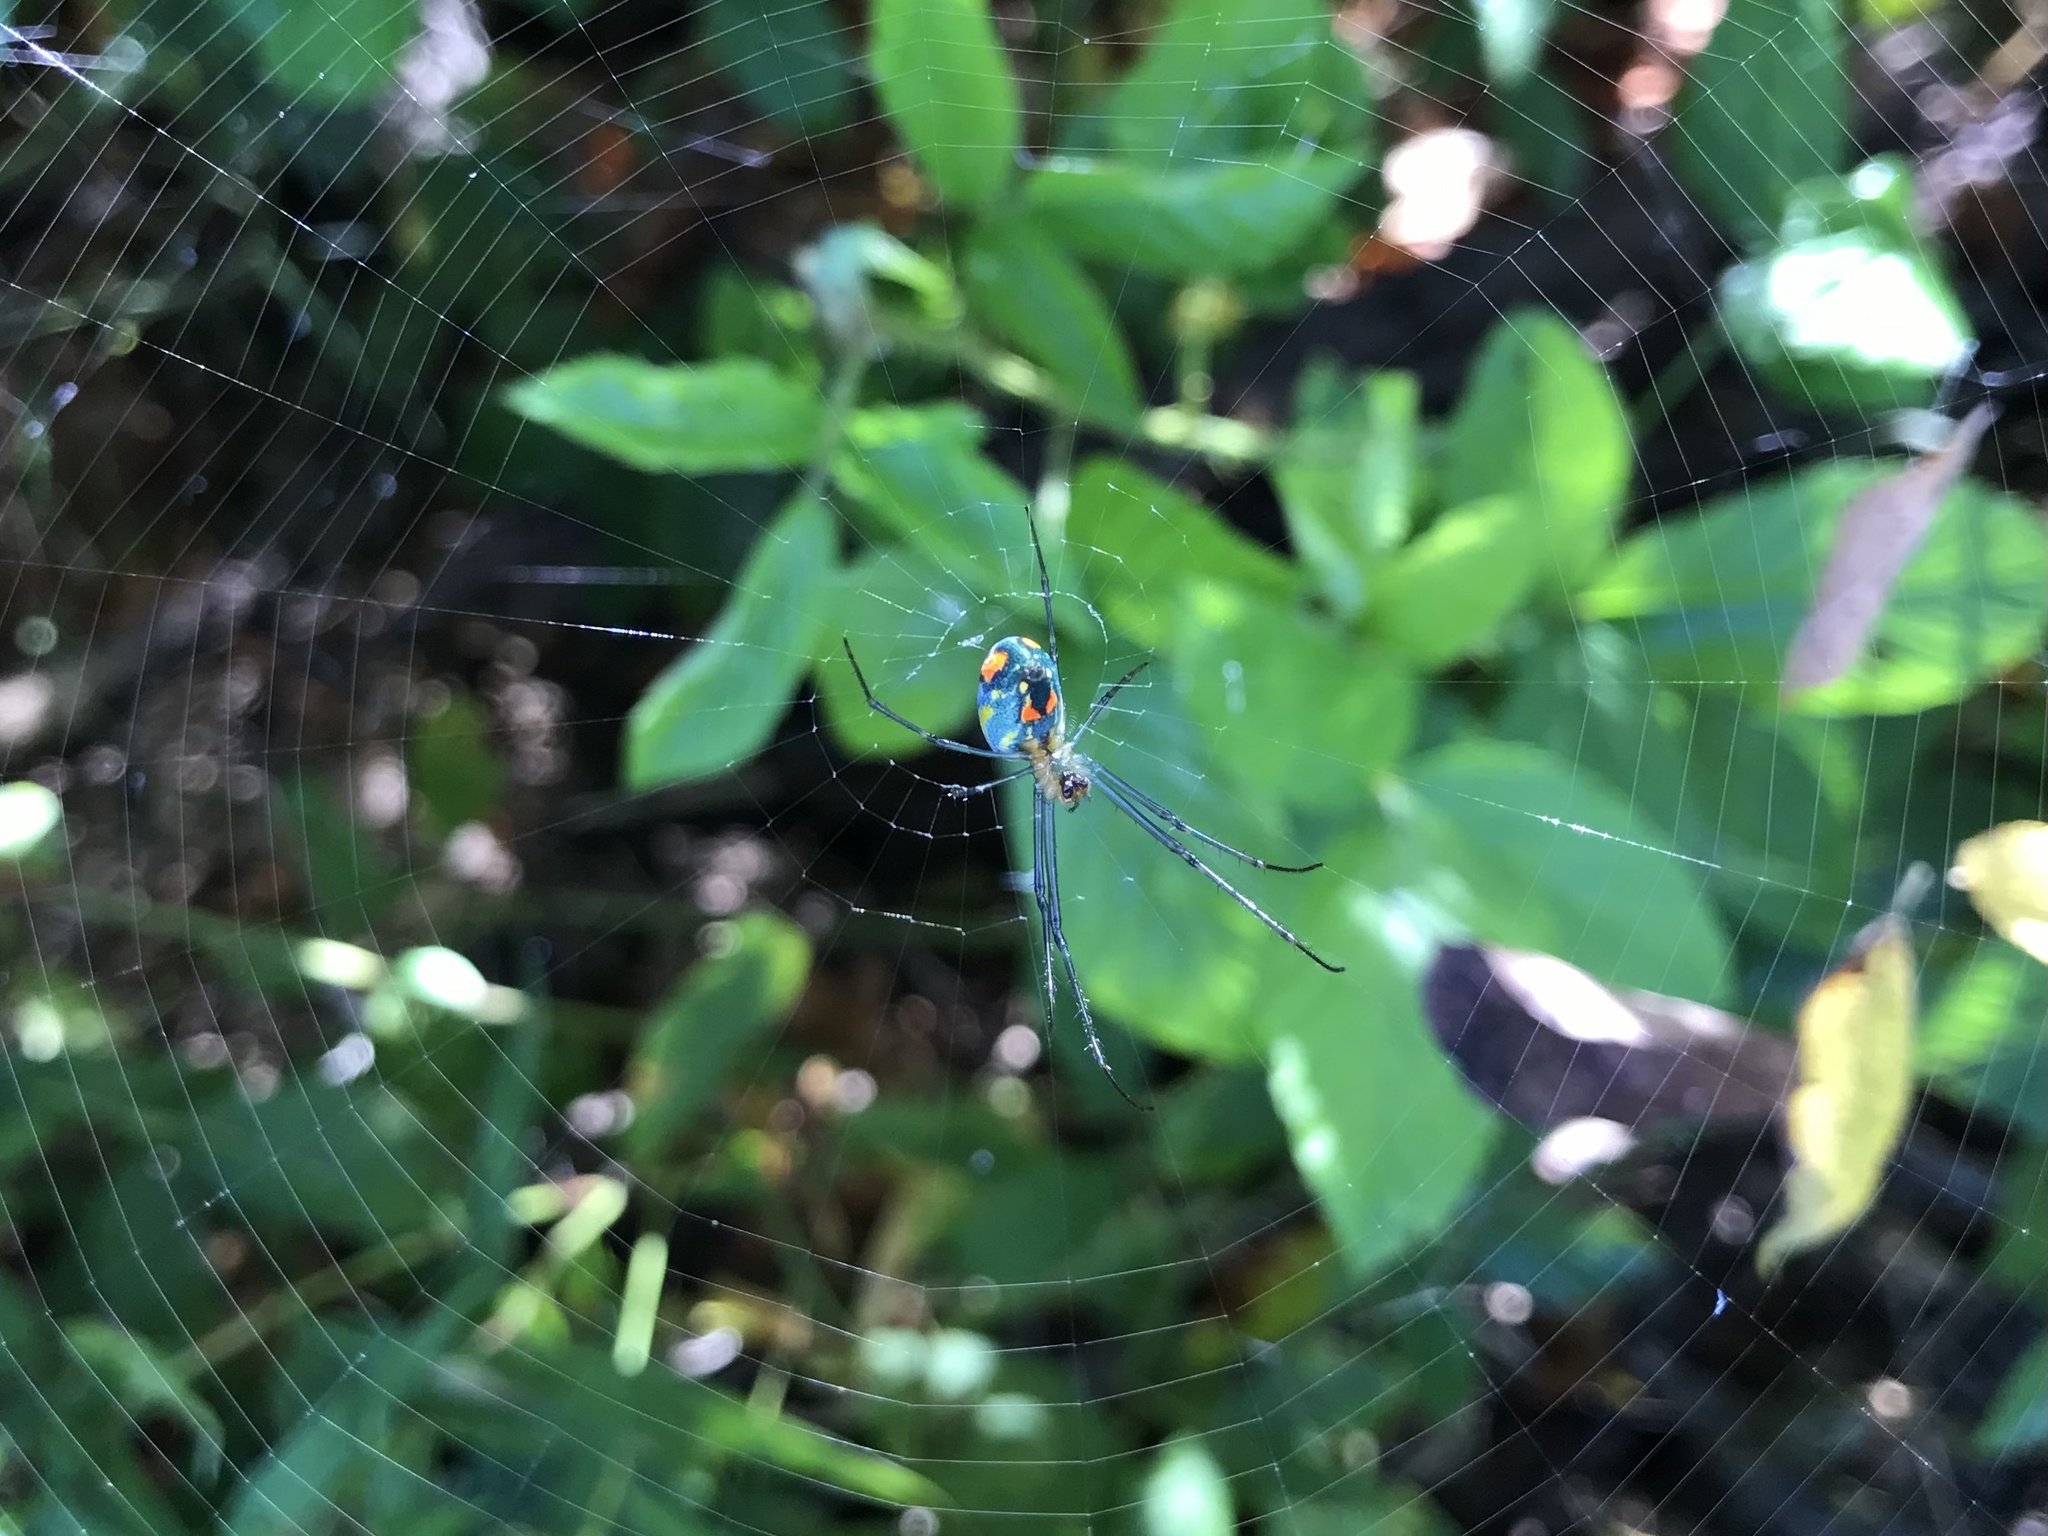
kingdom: Animalia
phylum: Arthropoda
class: Arachnida
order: Araneae
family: Tetragnathidae
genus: Leucauge
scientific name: Leucauge argyrobapta
